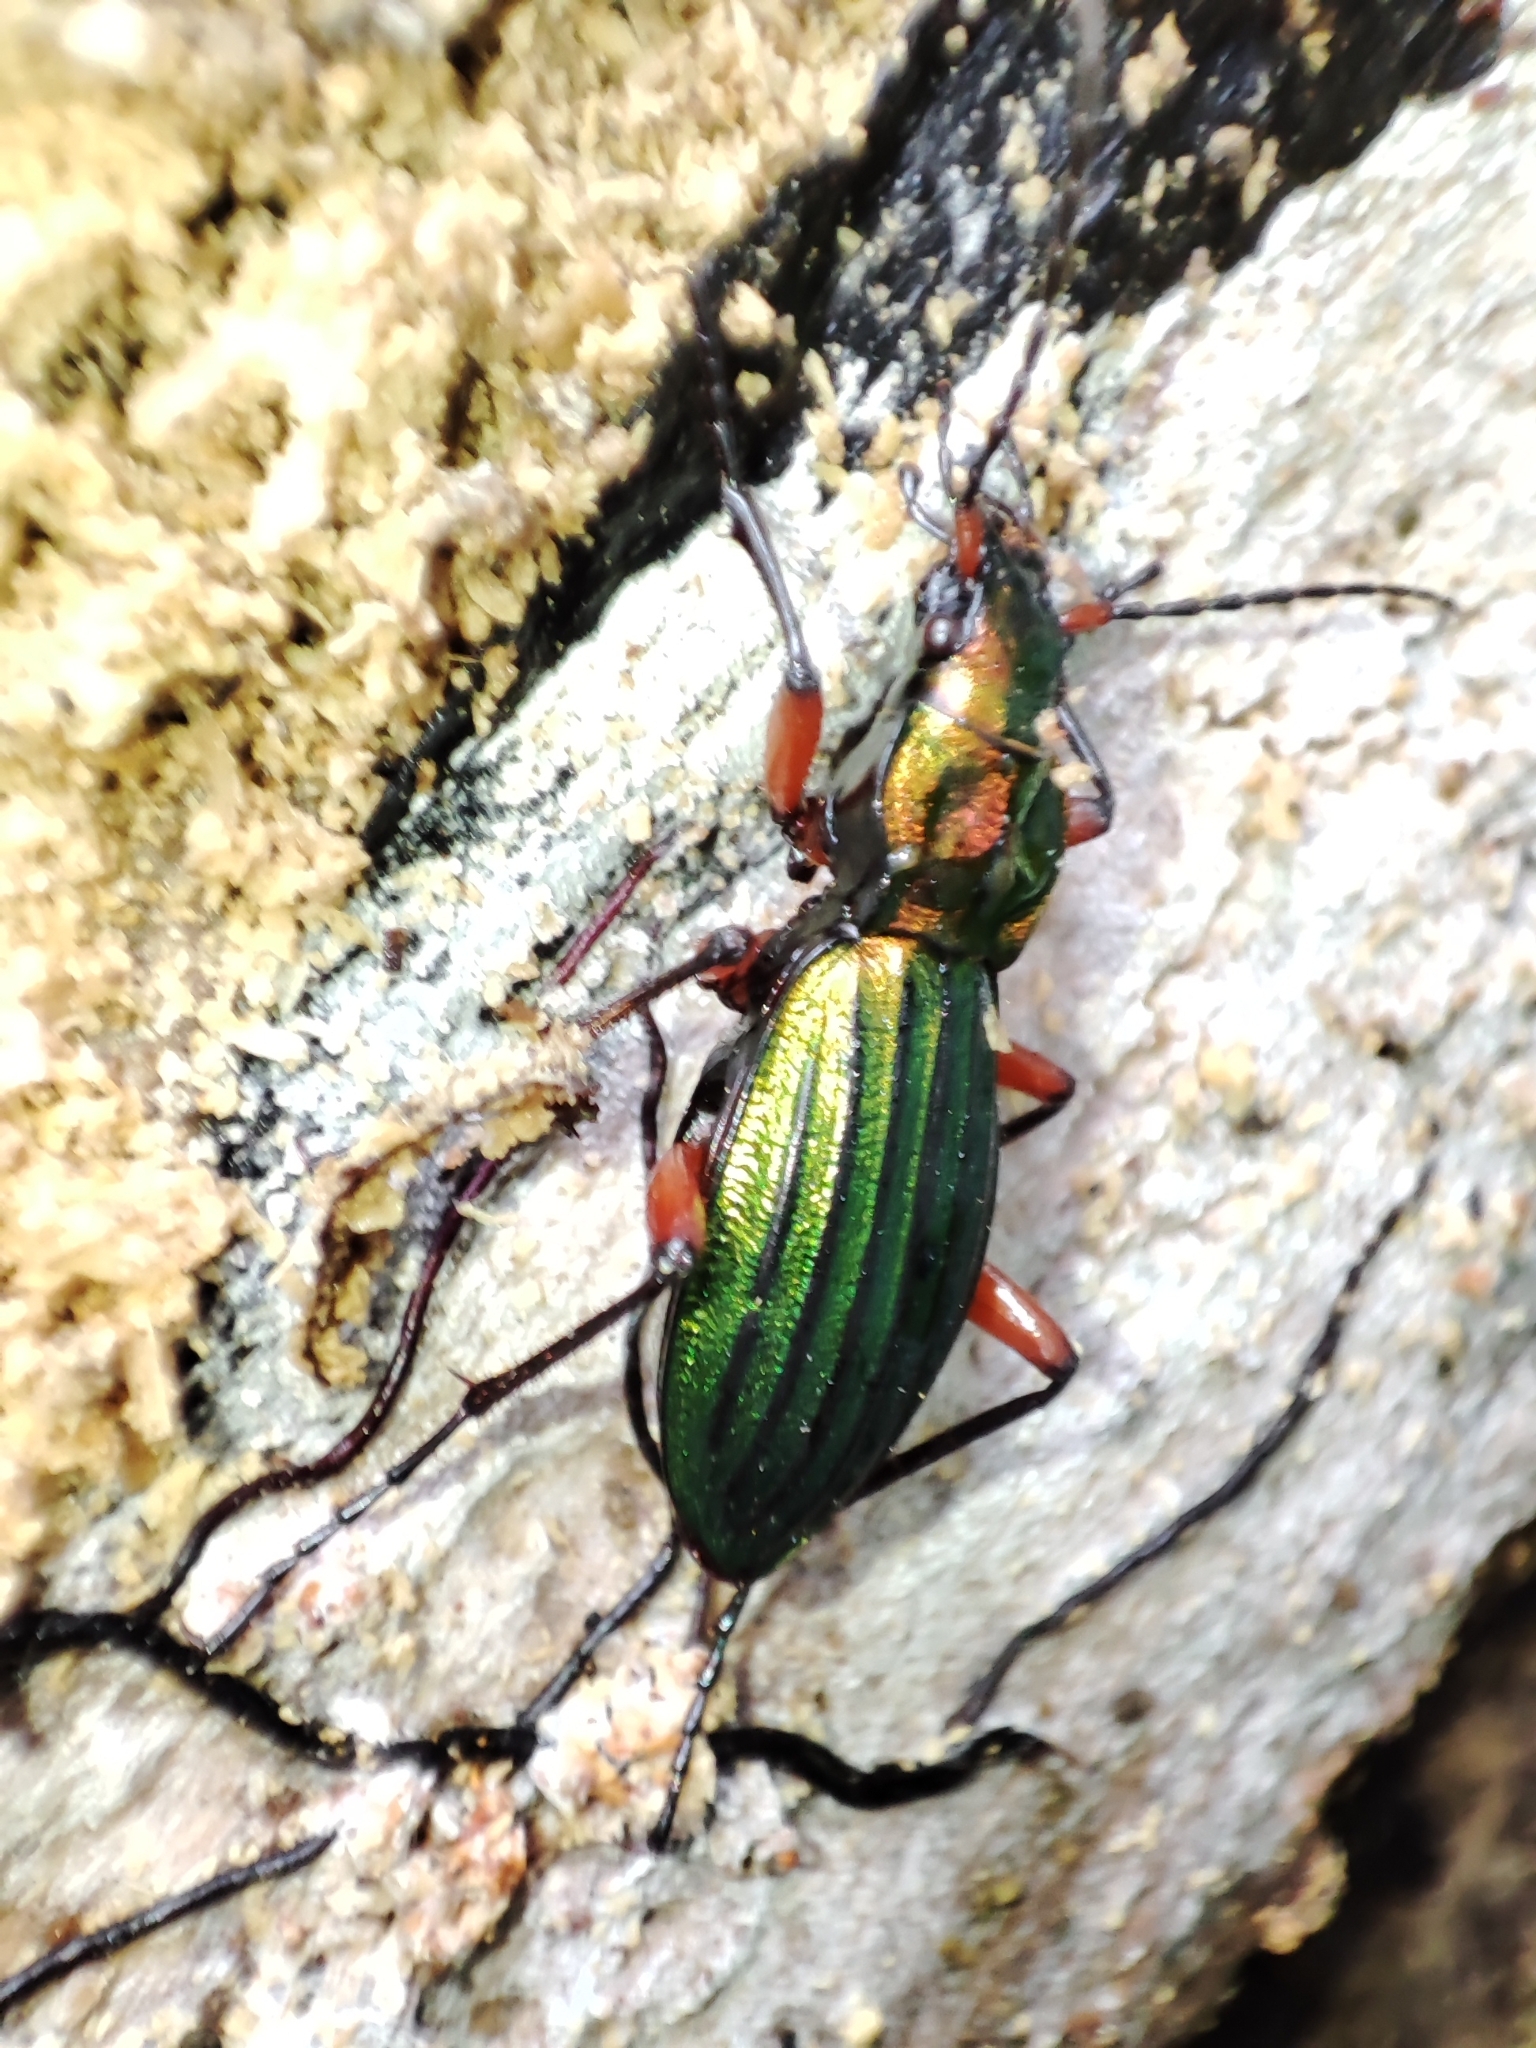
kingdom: Animalia
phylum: Arthropoda
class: Insecta
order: Coleoptera
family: Carabidae
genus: Carabus
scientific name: Carabus auronitens
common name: Carabus auronitens
